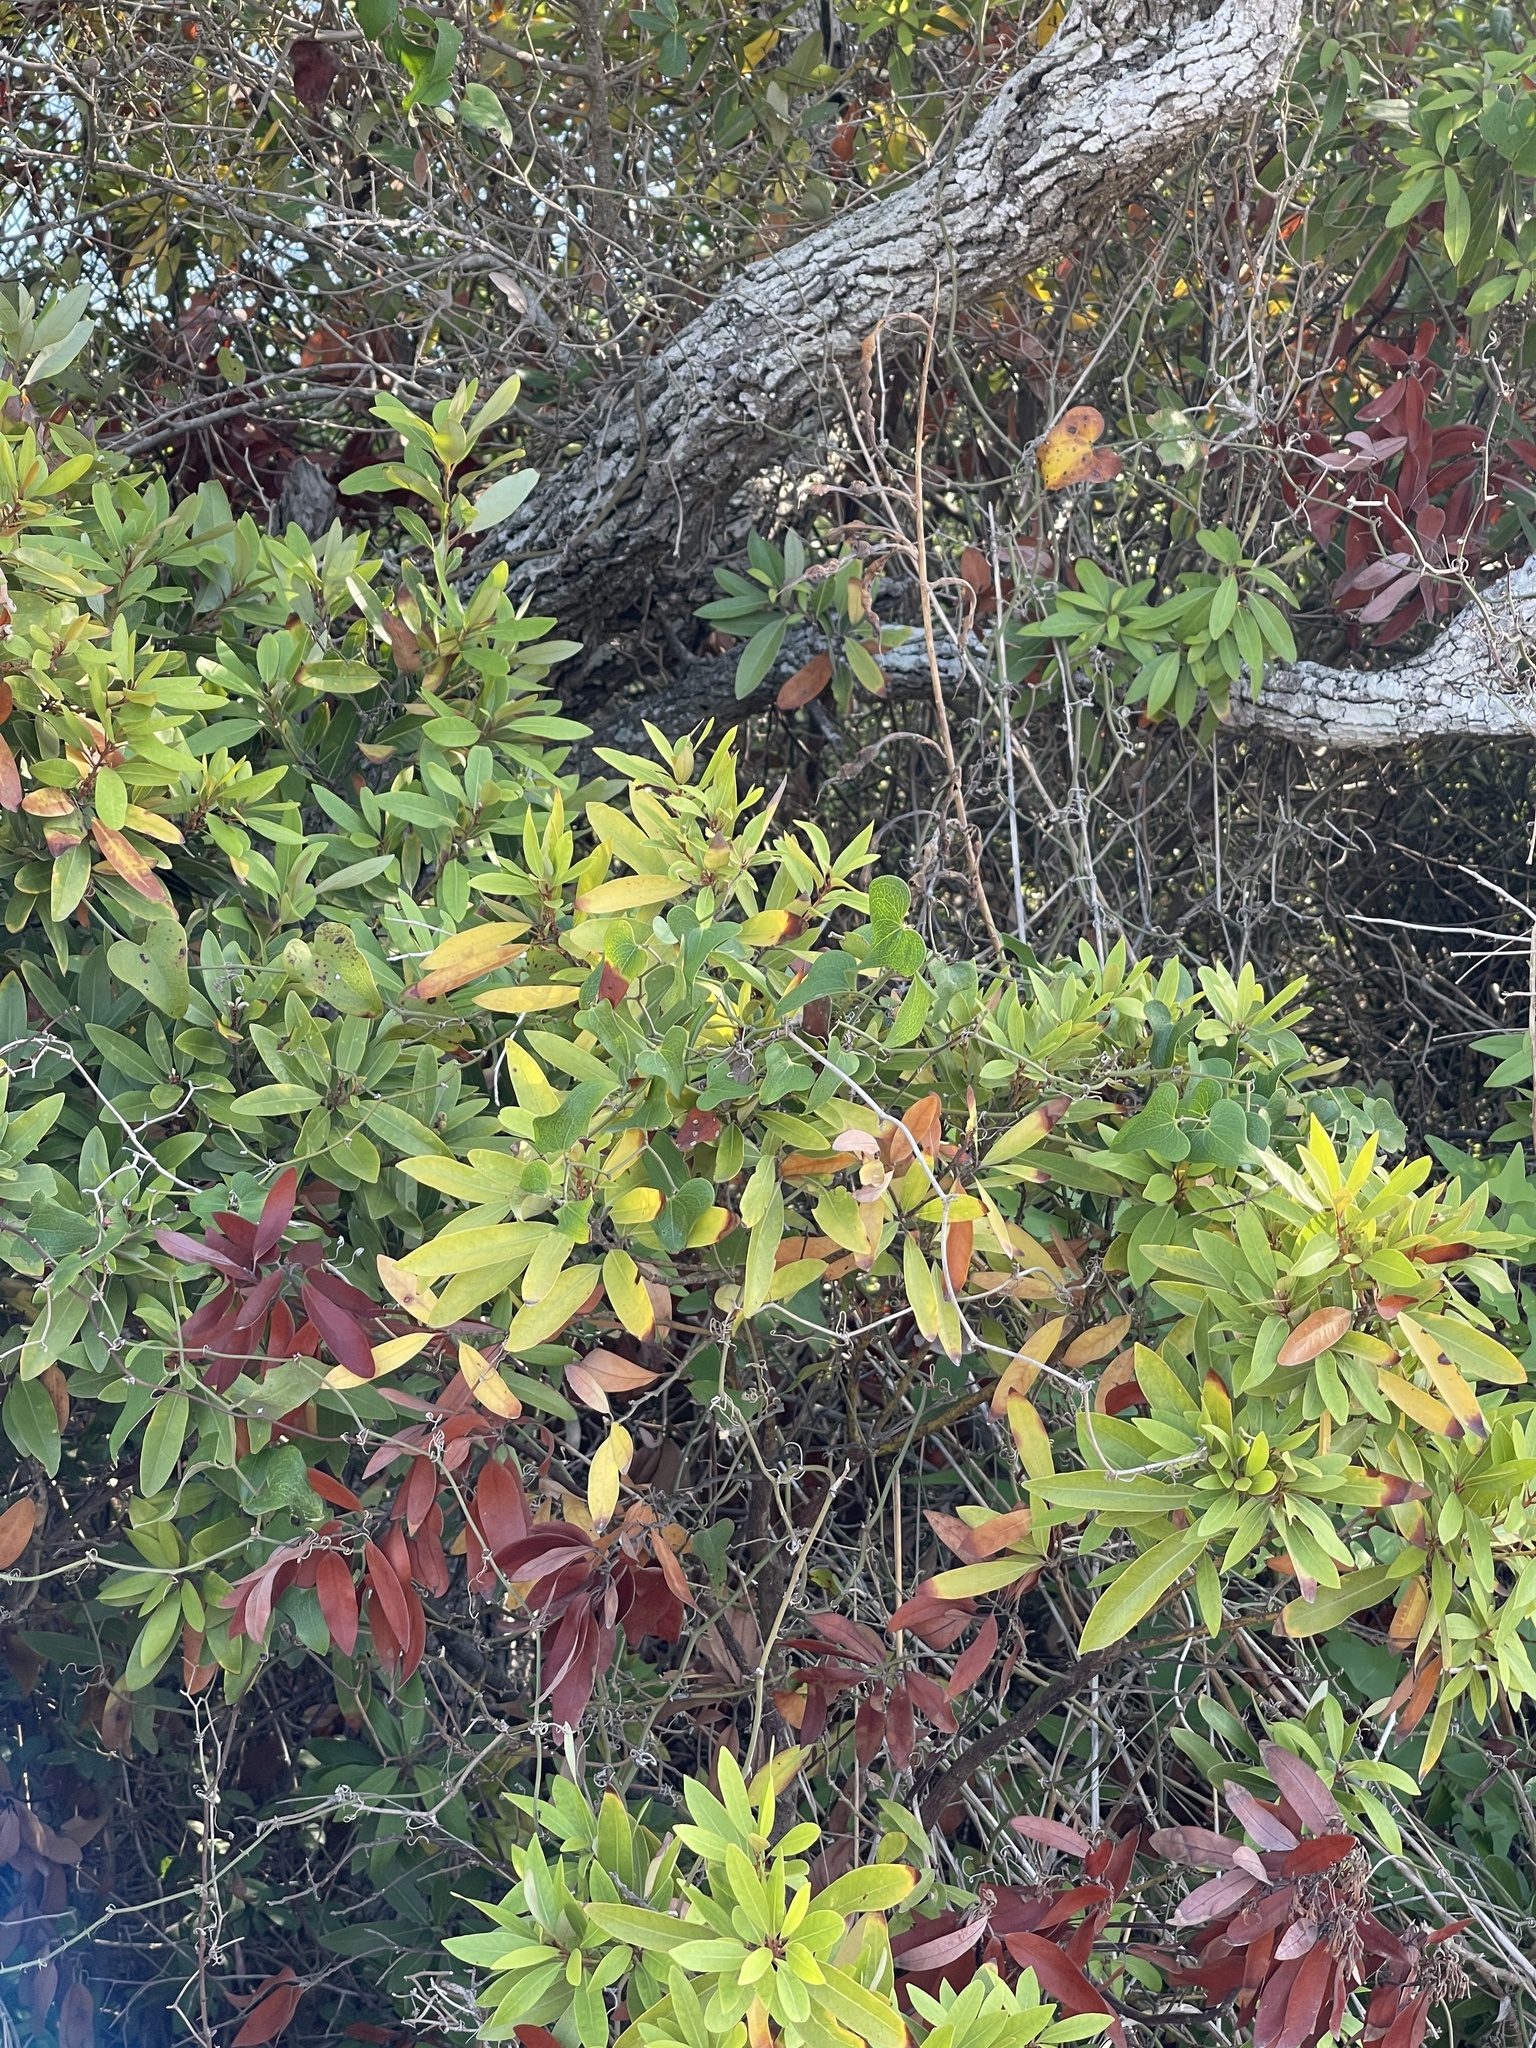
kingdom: Plantae
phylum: Tracheophyta
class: Magnoliopsida
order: Laurales
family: Lauraceae
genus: Persea
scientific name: Persea borbonia
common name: Redbay
